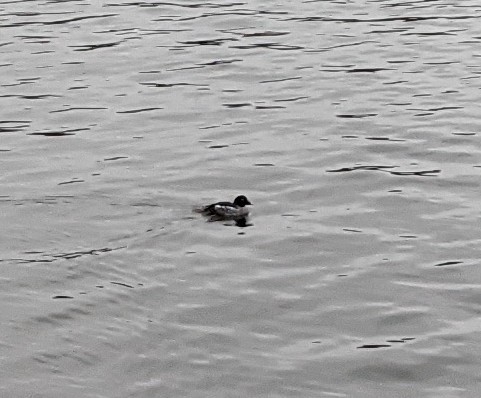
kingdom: Animalia
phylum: Chordata
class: Aves
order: Anseriformes
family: Anatidae
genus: Bucephala
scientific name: Bucephala clangula
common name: Common goldeneye
